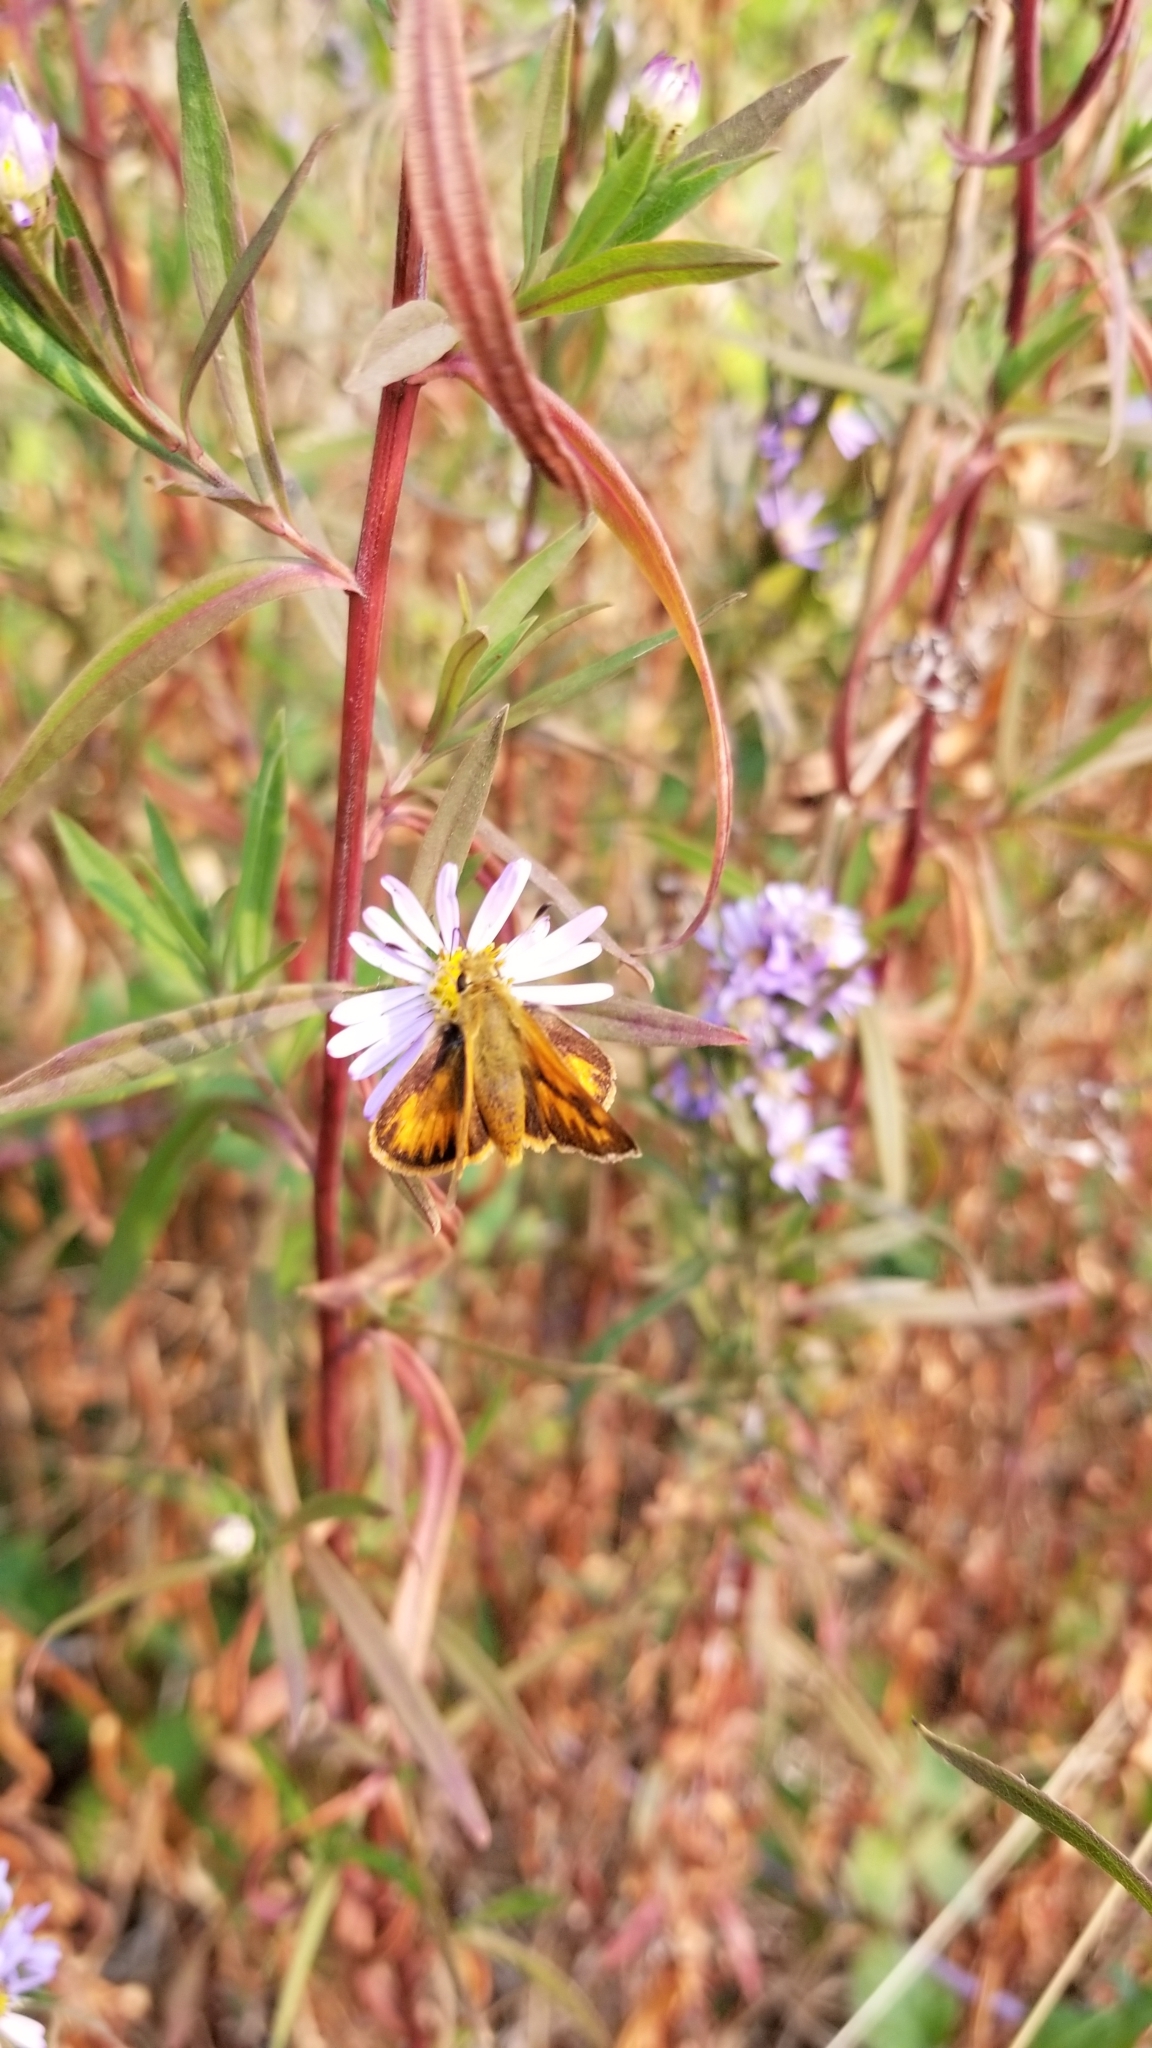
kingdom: Animalia
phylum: Arthropoda
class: Insecta
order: Lepidoptera
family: Hesperiidae
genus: Ochlodes
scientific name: Ochlodes sylvanoides
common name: Woodland skipper
